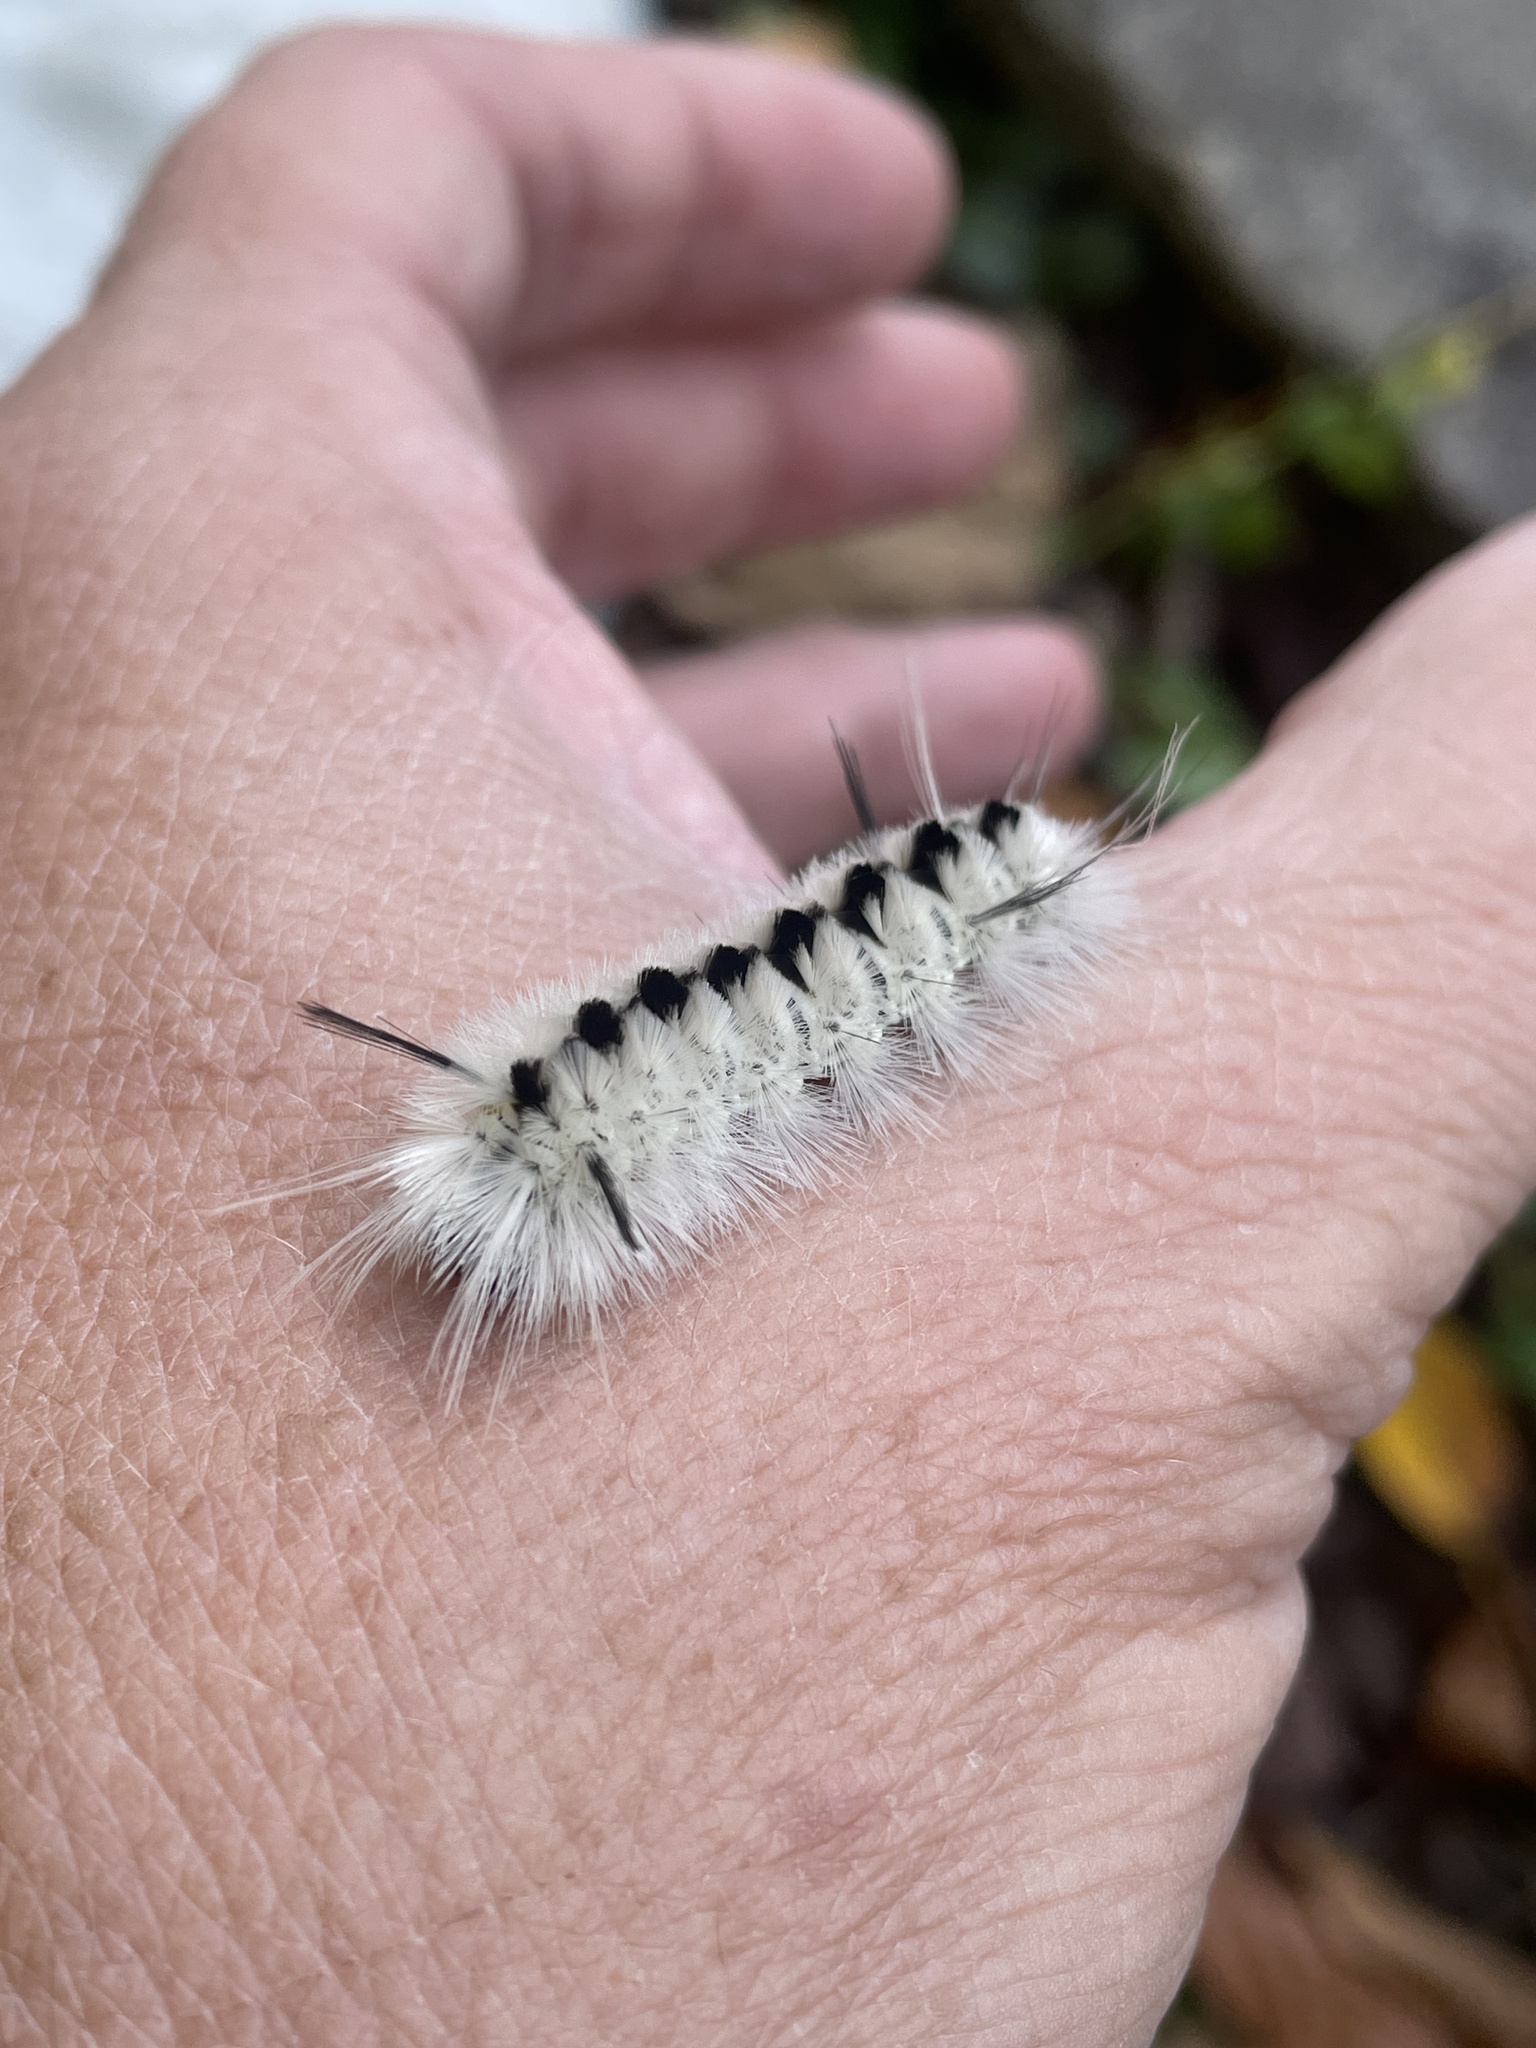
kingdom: Animalia
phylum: Arthropoda
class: Insecta
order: Lepidoptera
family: Erebidae
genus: Lophocampa
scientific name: Lophocampa caryae
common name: Hickory tussock moth
